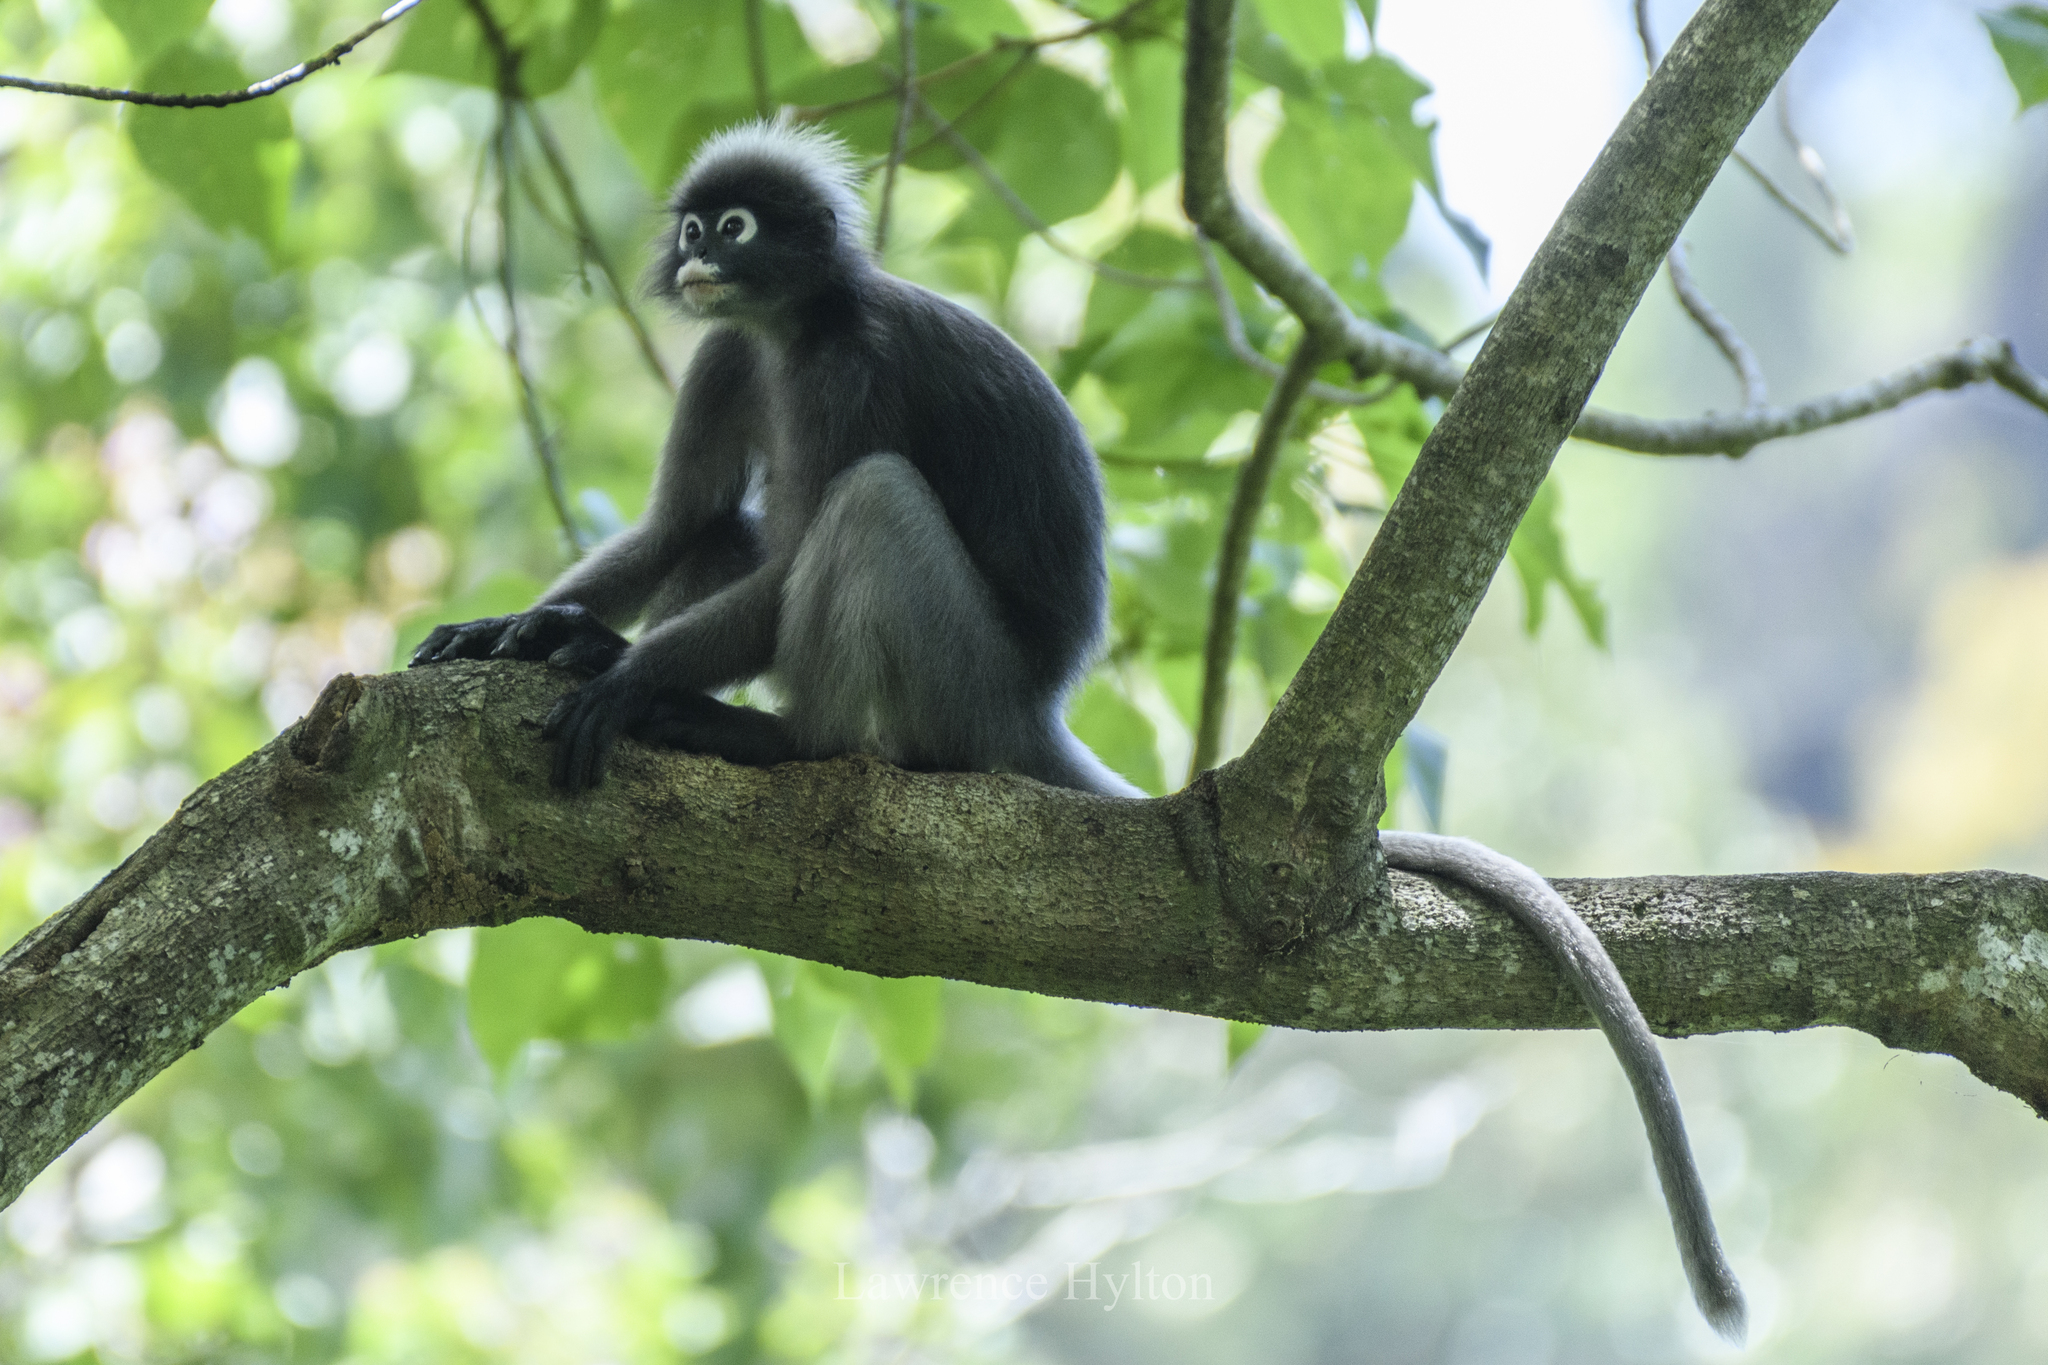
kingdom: Animalia
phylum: Chordata
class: Mammalia
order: Primates
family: Cercopithecidae
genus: Trachypithecus
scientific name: Trachypithecus obscurus
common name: Dusky leaf-monkey
